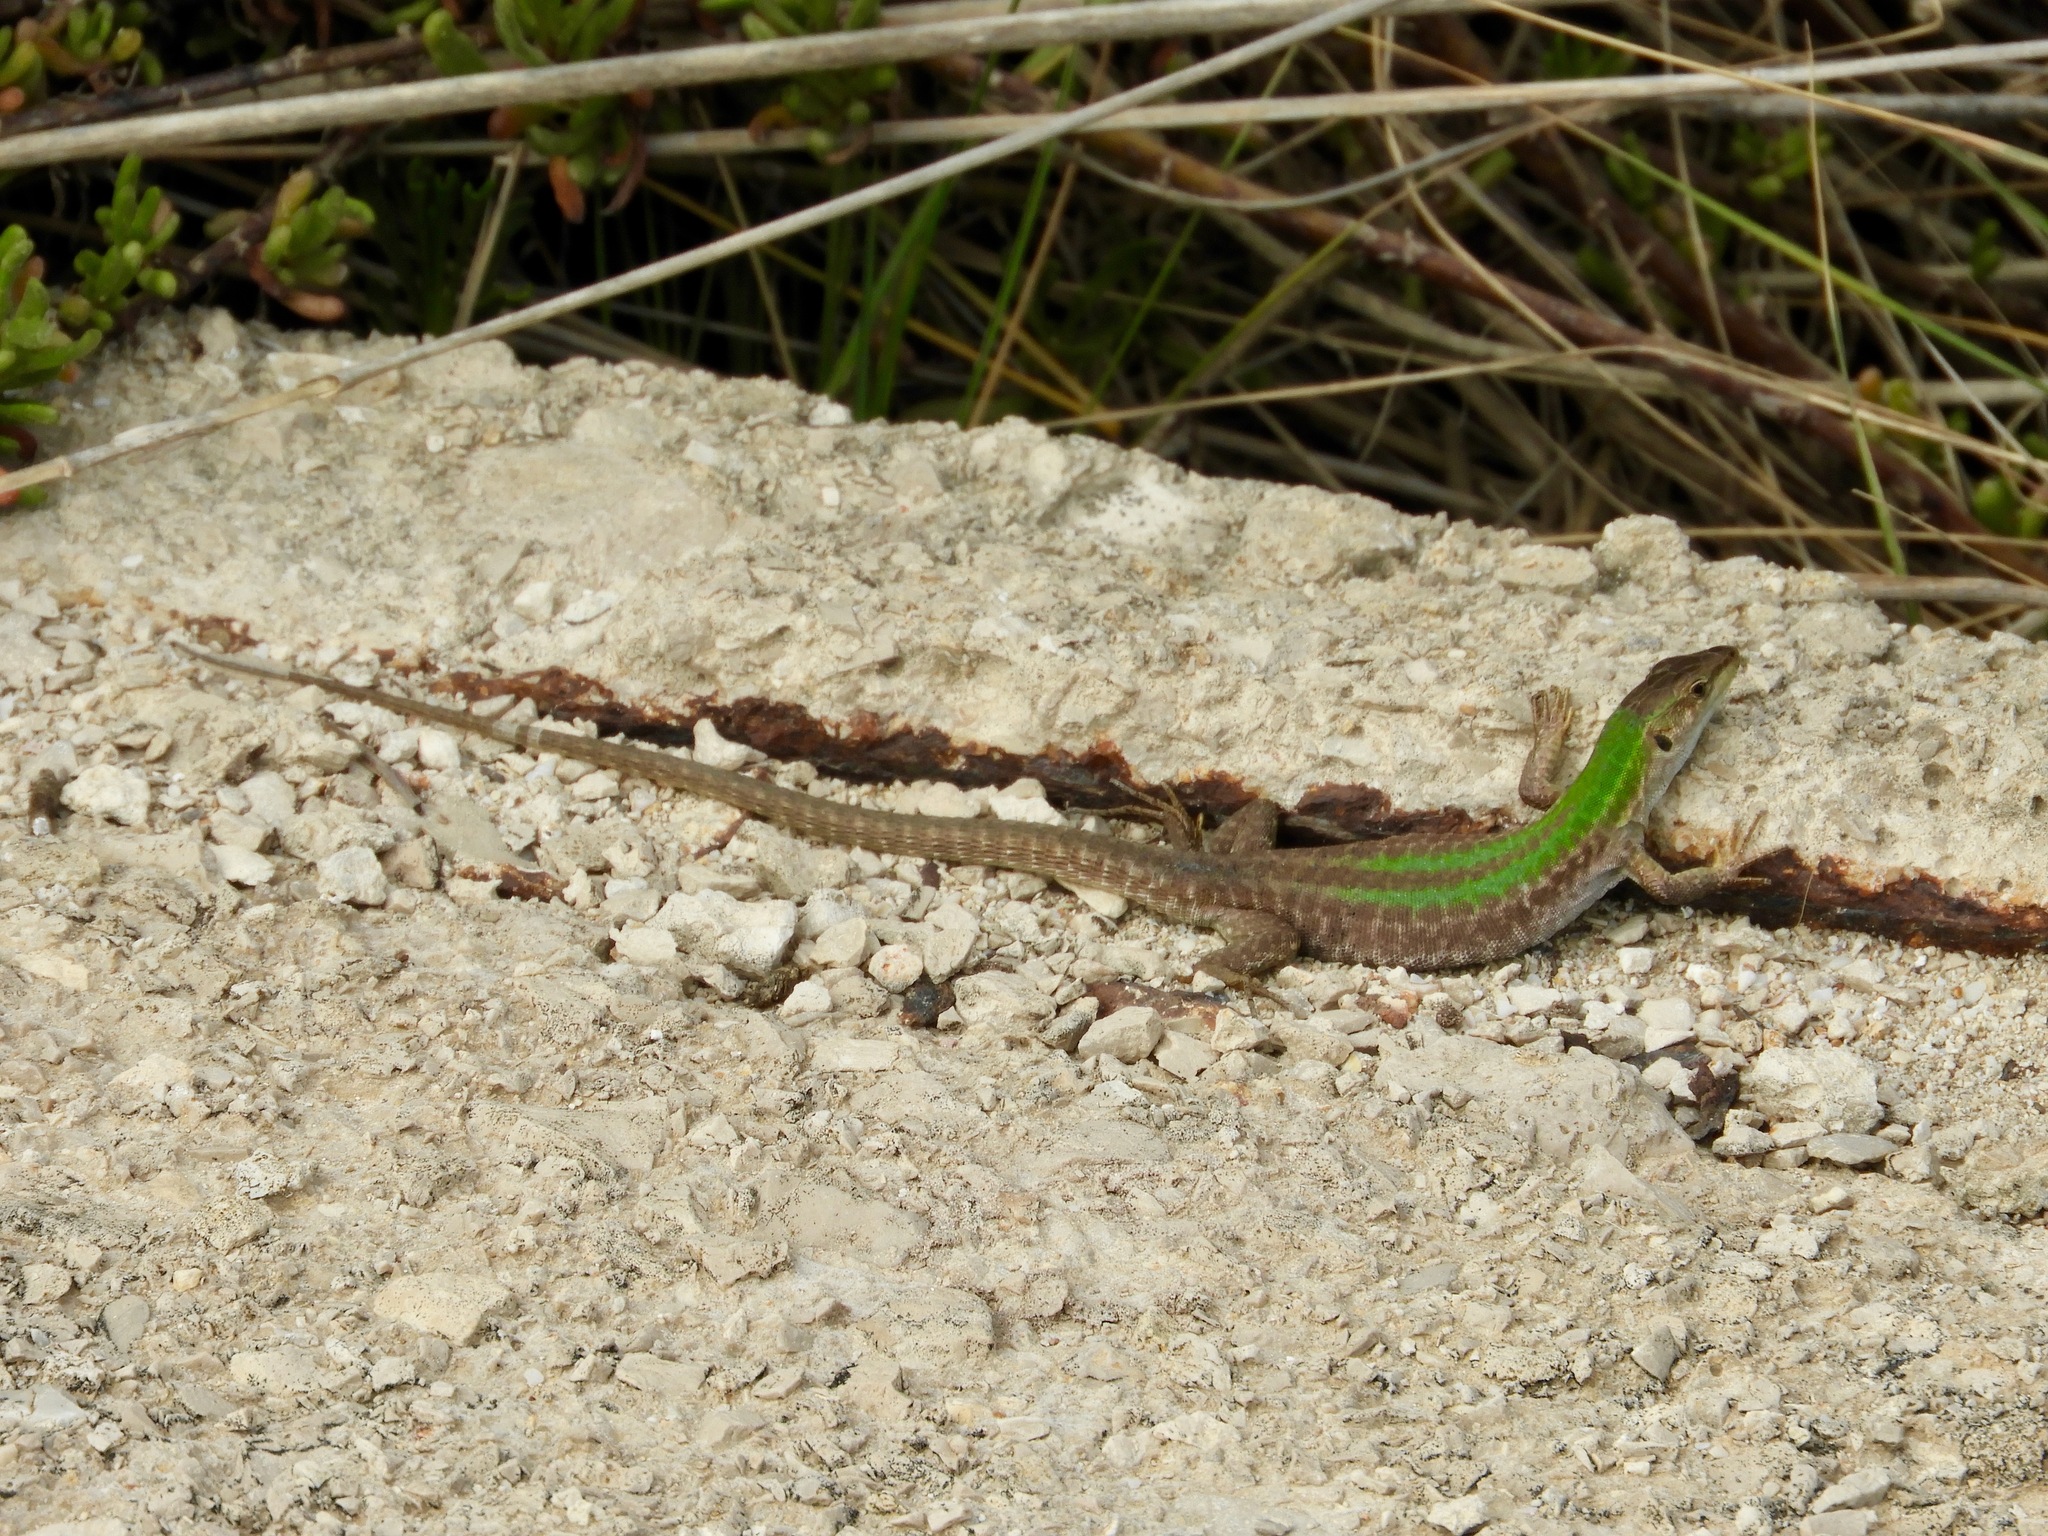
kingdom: Animalia
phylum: Chordata
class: Squamata
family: Lacertidae
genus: Podarcis
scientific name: Podarcis siculus
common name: Italian wall lizard
